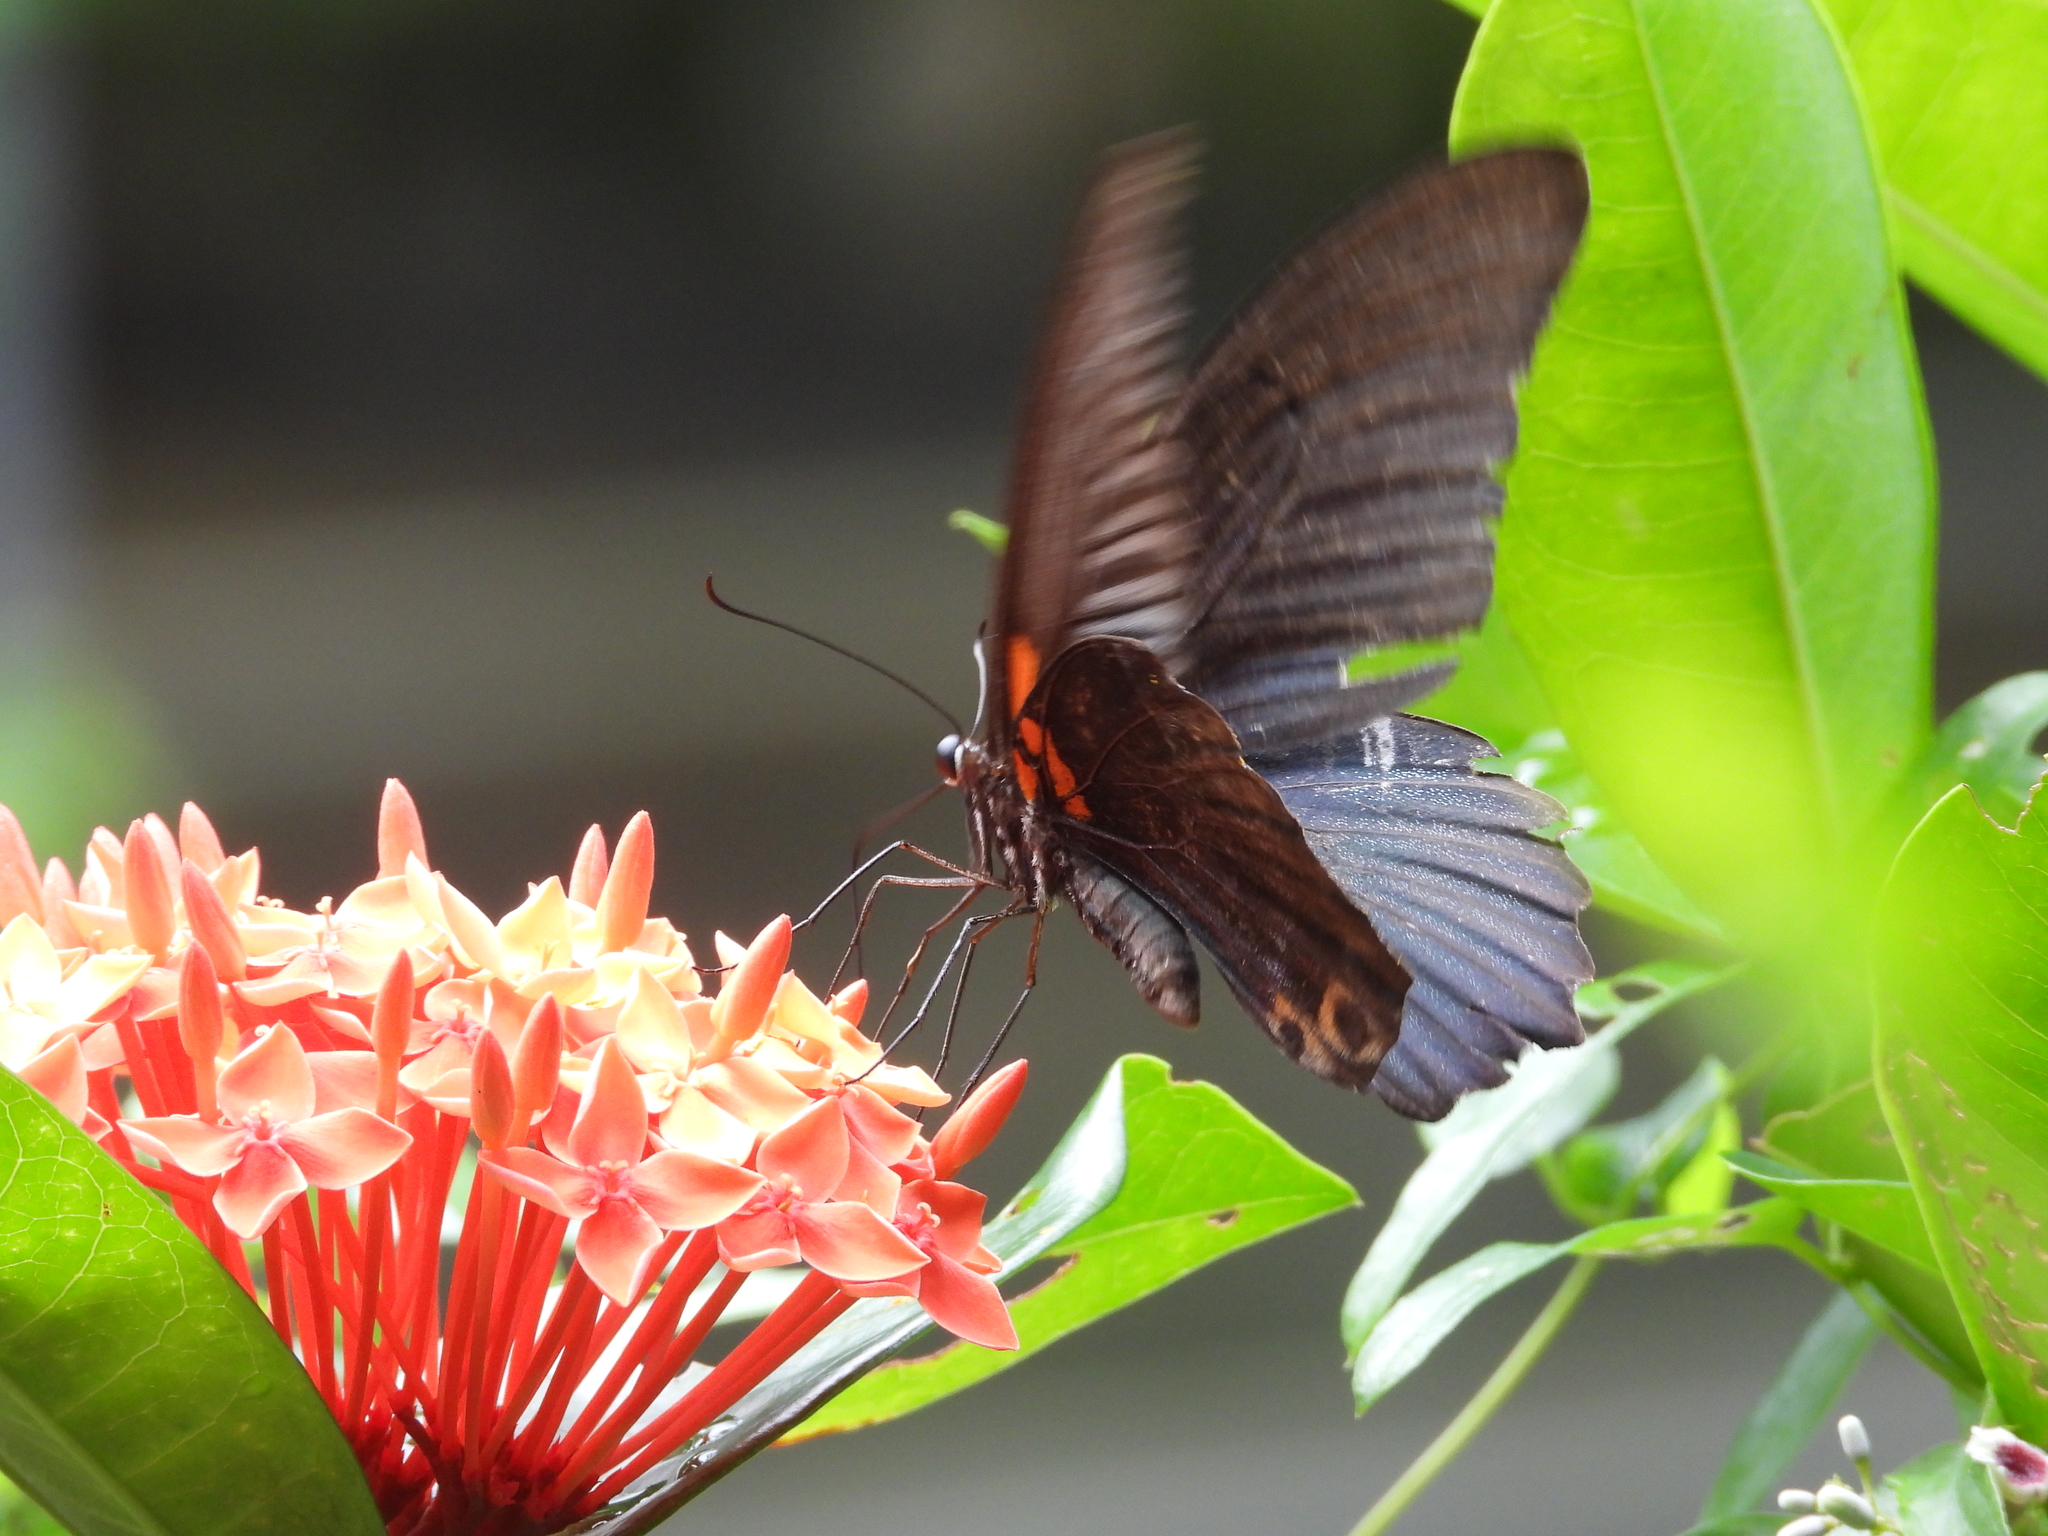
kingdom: Animalia
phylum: Arthropoda
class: Insecta
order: Lepidoptera
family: Papilionidae
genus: Papilio
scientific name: Papilio memnon
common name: Great mormon
